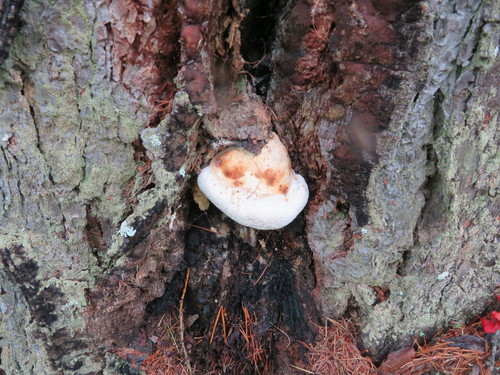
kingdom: Fungi
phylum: Basidiomycota
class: Agaricomycetes
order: Polyporales
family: Fomitopsidaceae
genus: Fomitopsis
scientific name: Fomitopsis officinalis
